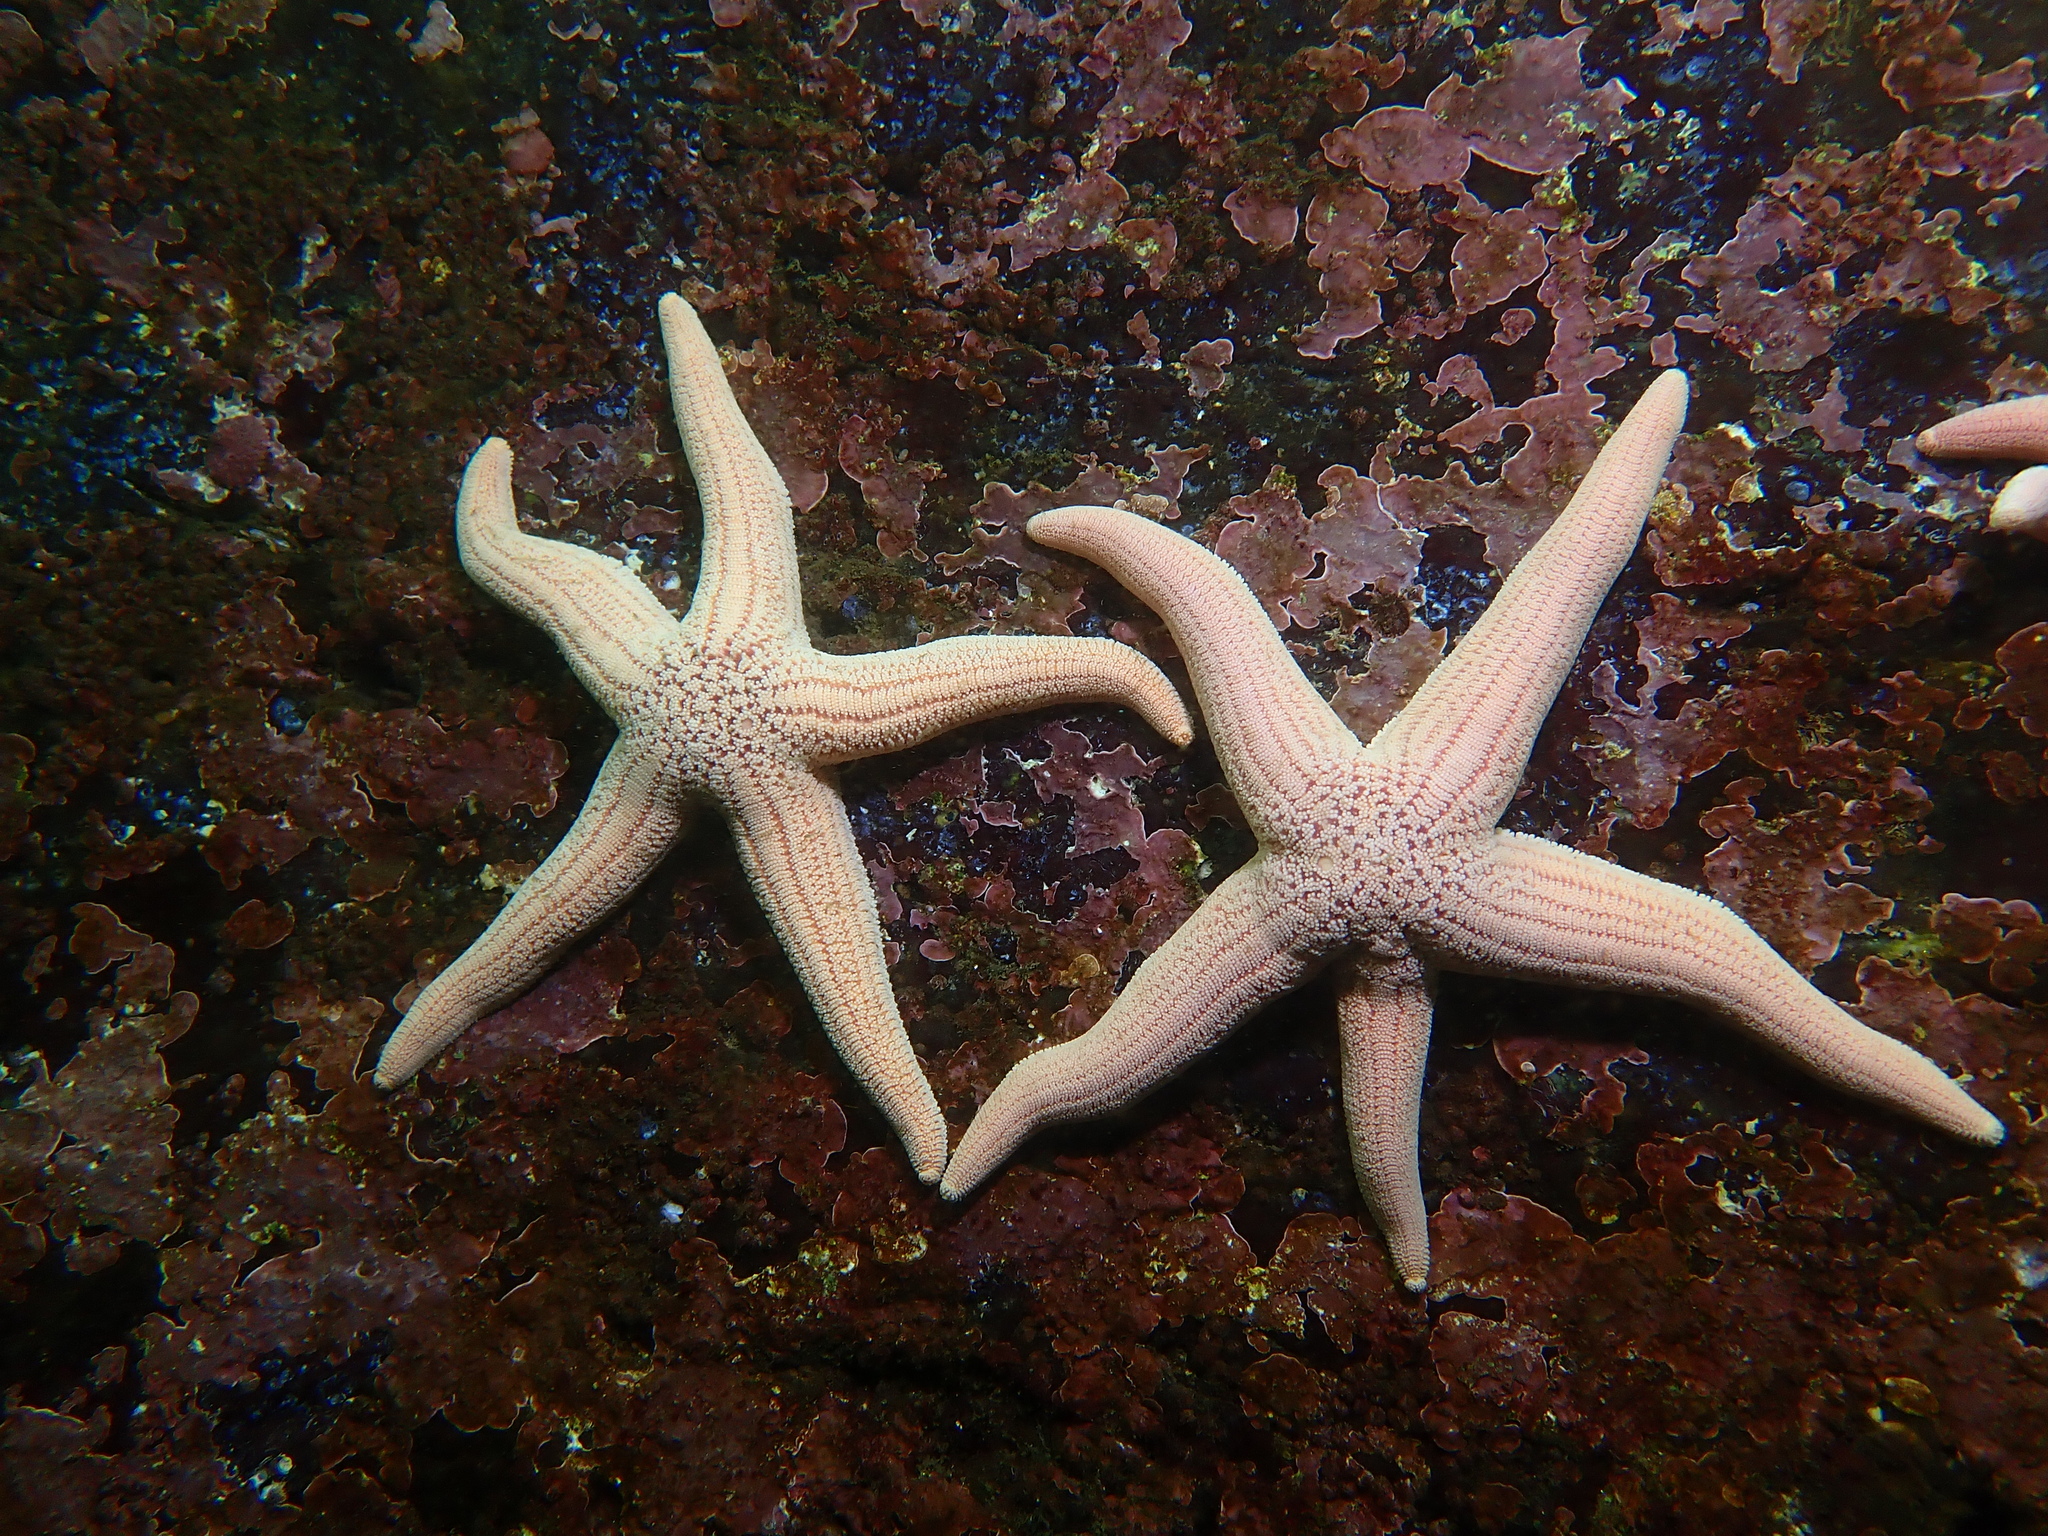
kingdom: Animalia
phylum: Echinodermata
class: Asteroidea
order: Forcipulatida
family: Stichasteridae
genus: Stichaster
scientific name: Stichaster striatus
